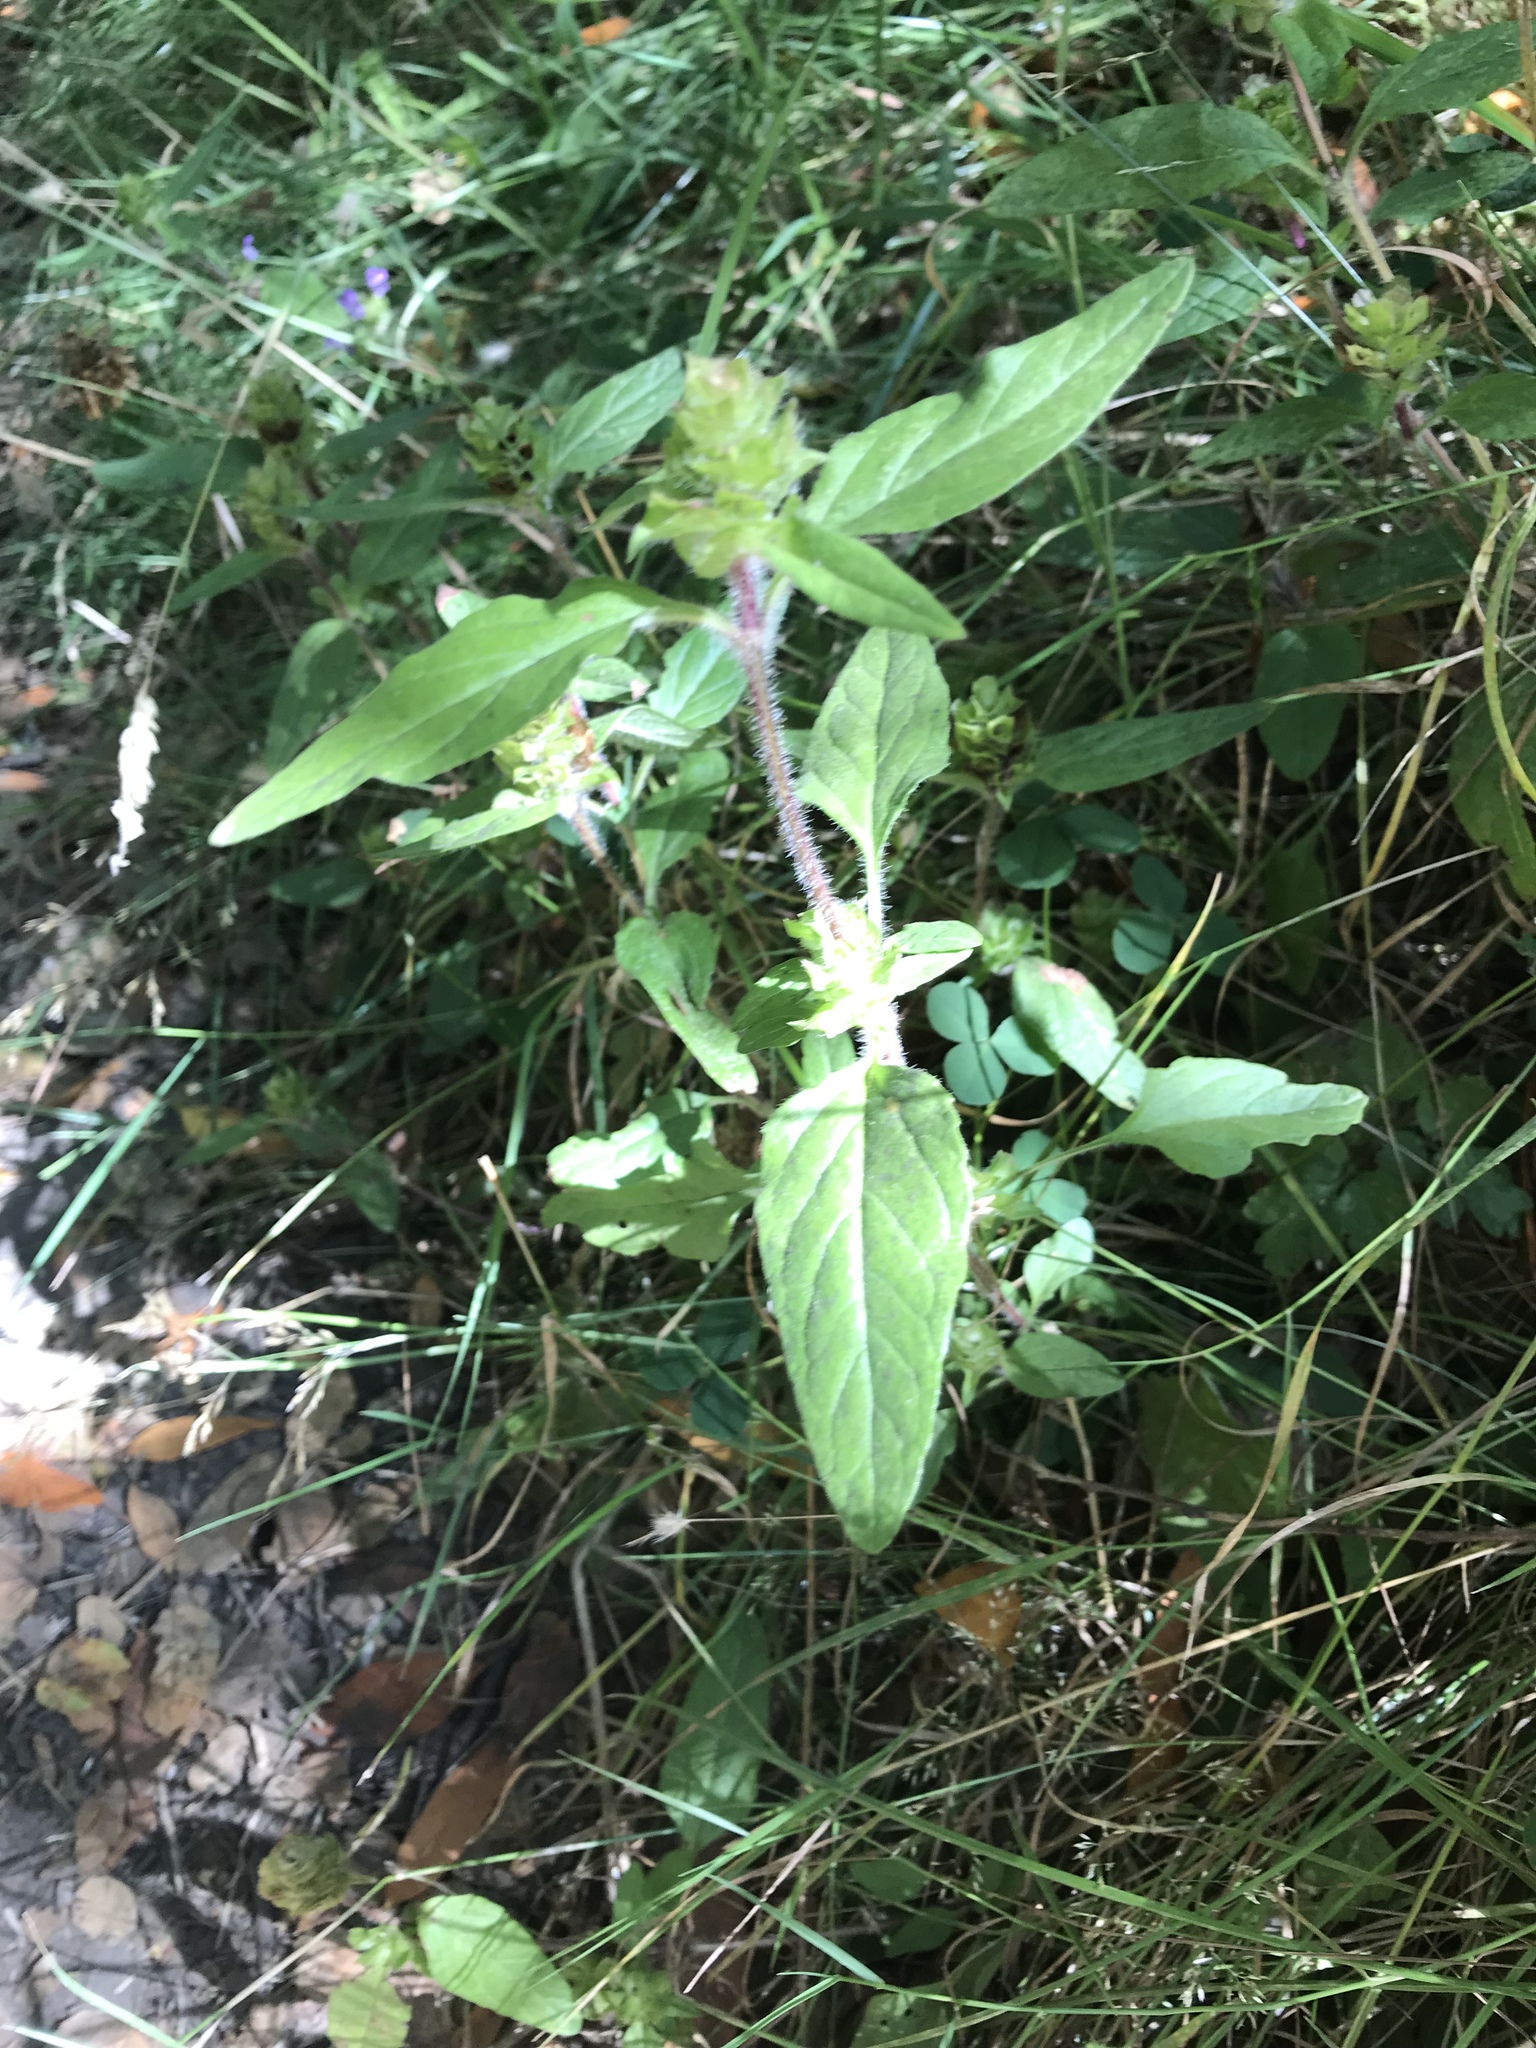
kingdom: Plantae
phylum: Tracheophyta
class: Magnoliopsida
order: Lamiales
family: Lamiaceae
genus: Prunella
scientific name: Prunella vulgaris
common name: Heal-all
